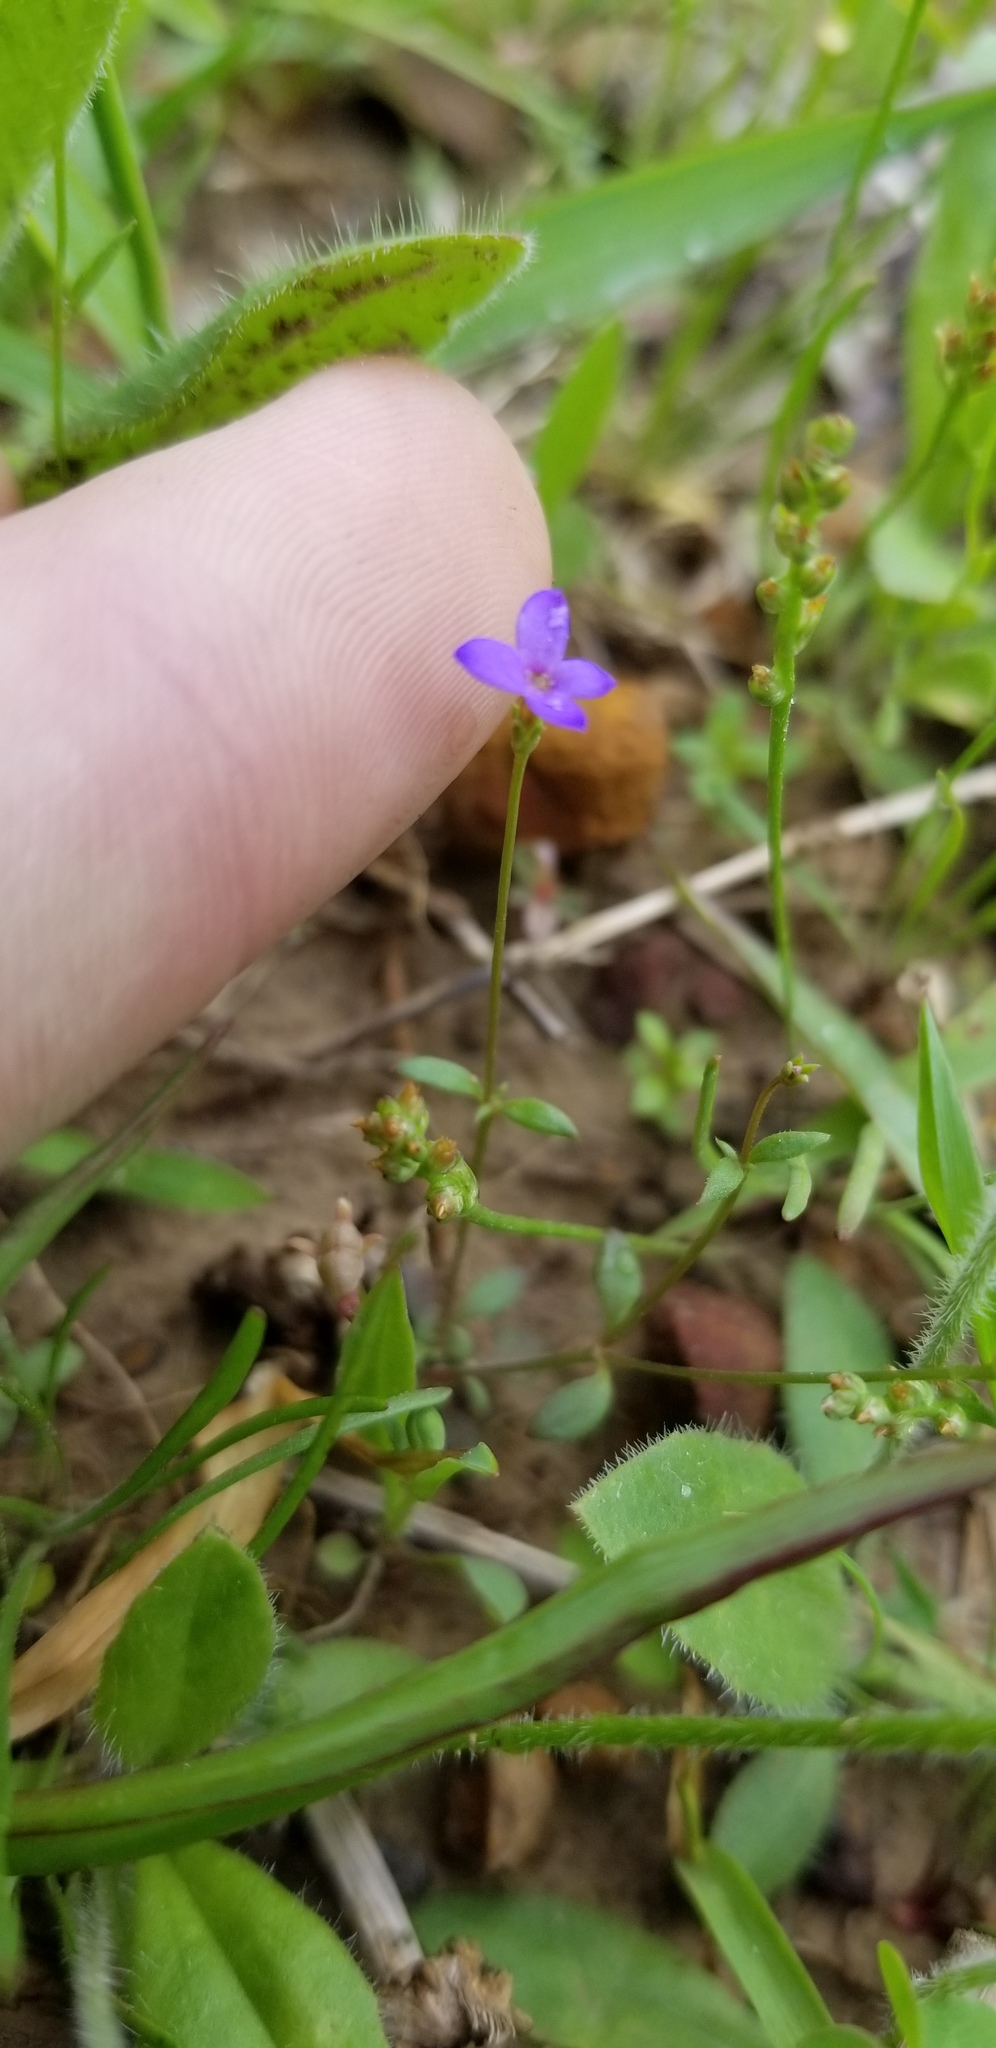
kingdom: Plantae
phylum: Tracheophyta
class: Magnoliopsida
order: Gentianales
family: Rubiaceae
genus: Houstonia
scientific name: Houstonia pusilla
